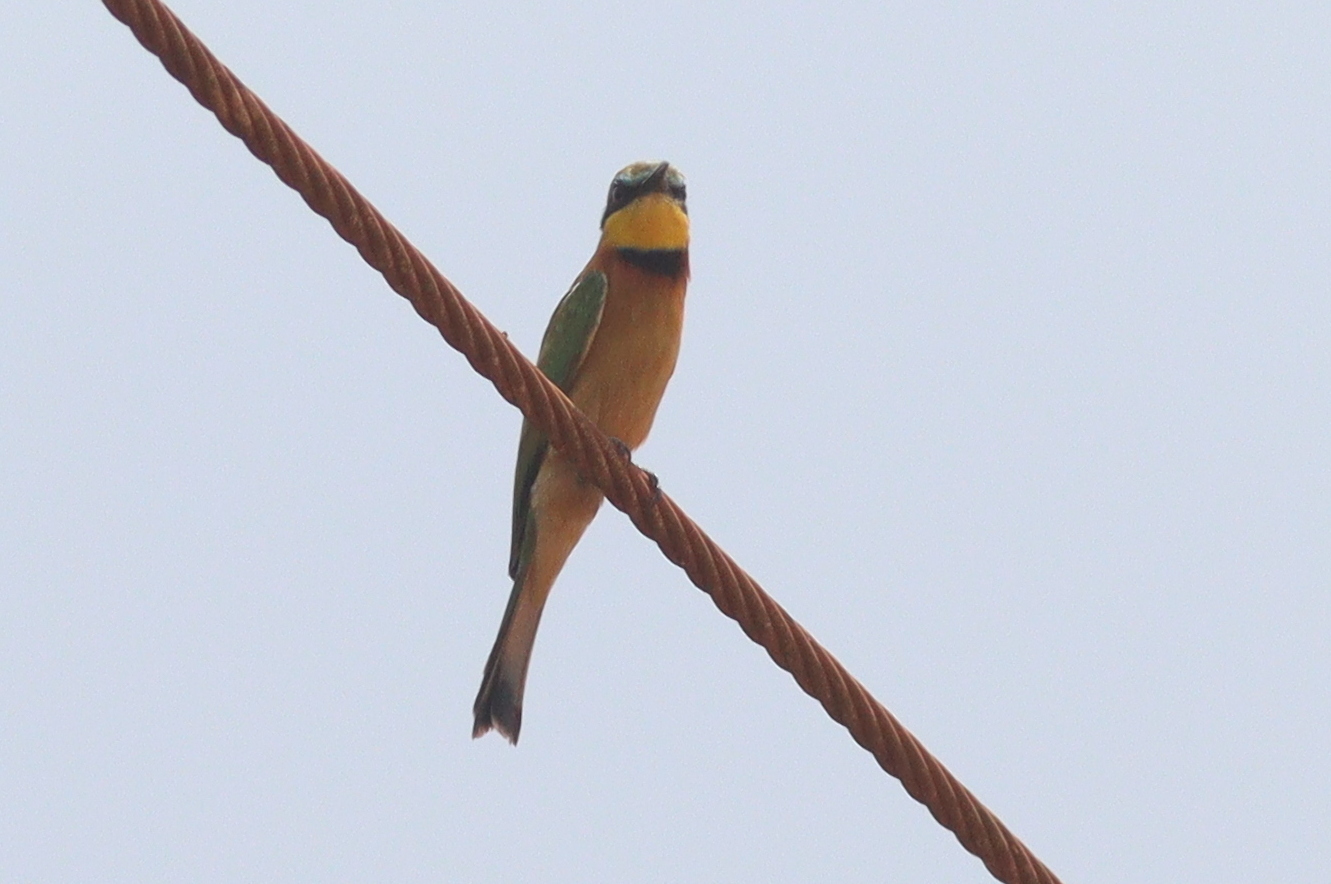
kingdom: Animalia
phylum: Chordata
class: Aves
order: Coraciiformes
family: Meropidae
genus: Merops
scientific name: Merops pusillus
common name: Little bee-eater
